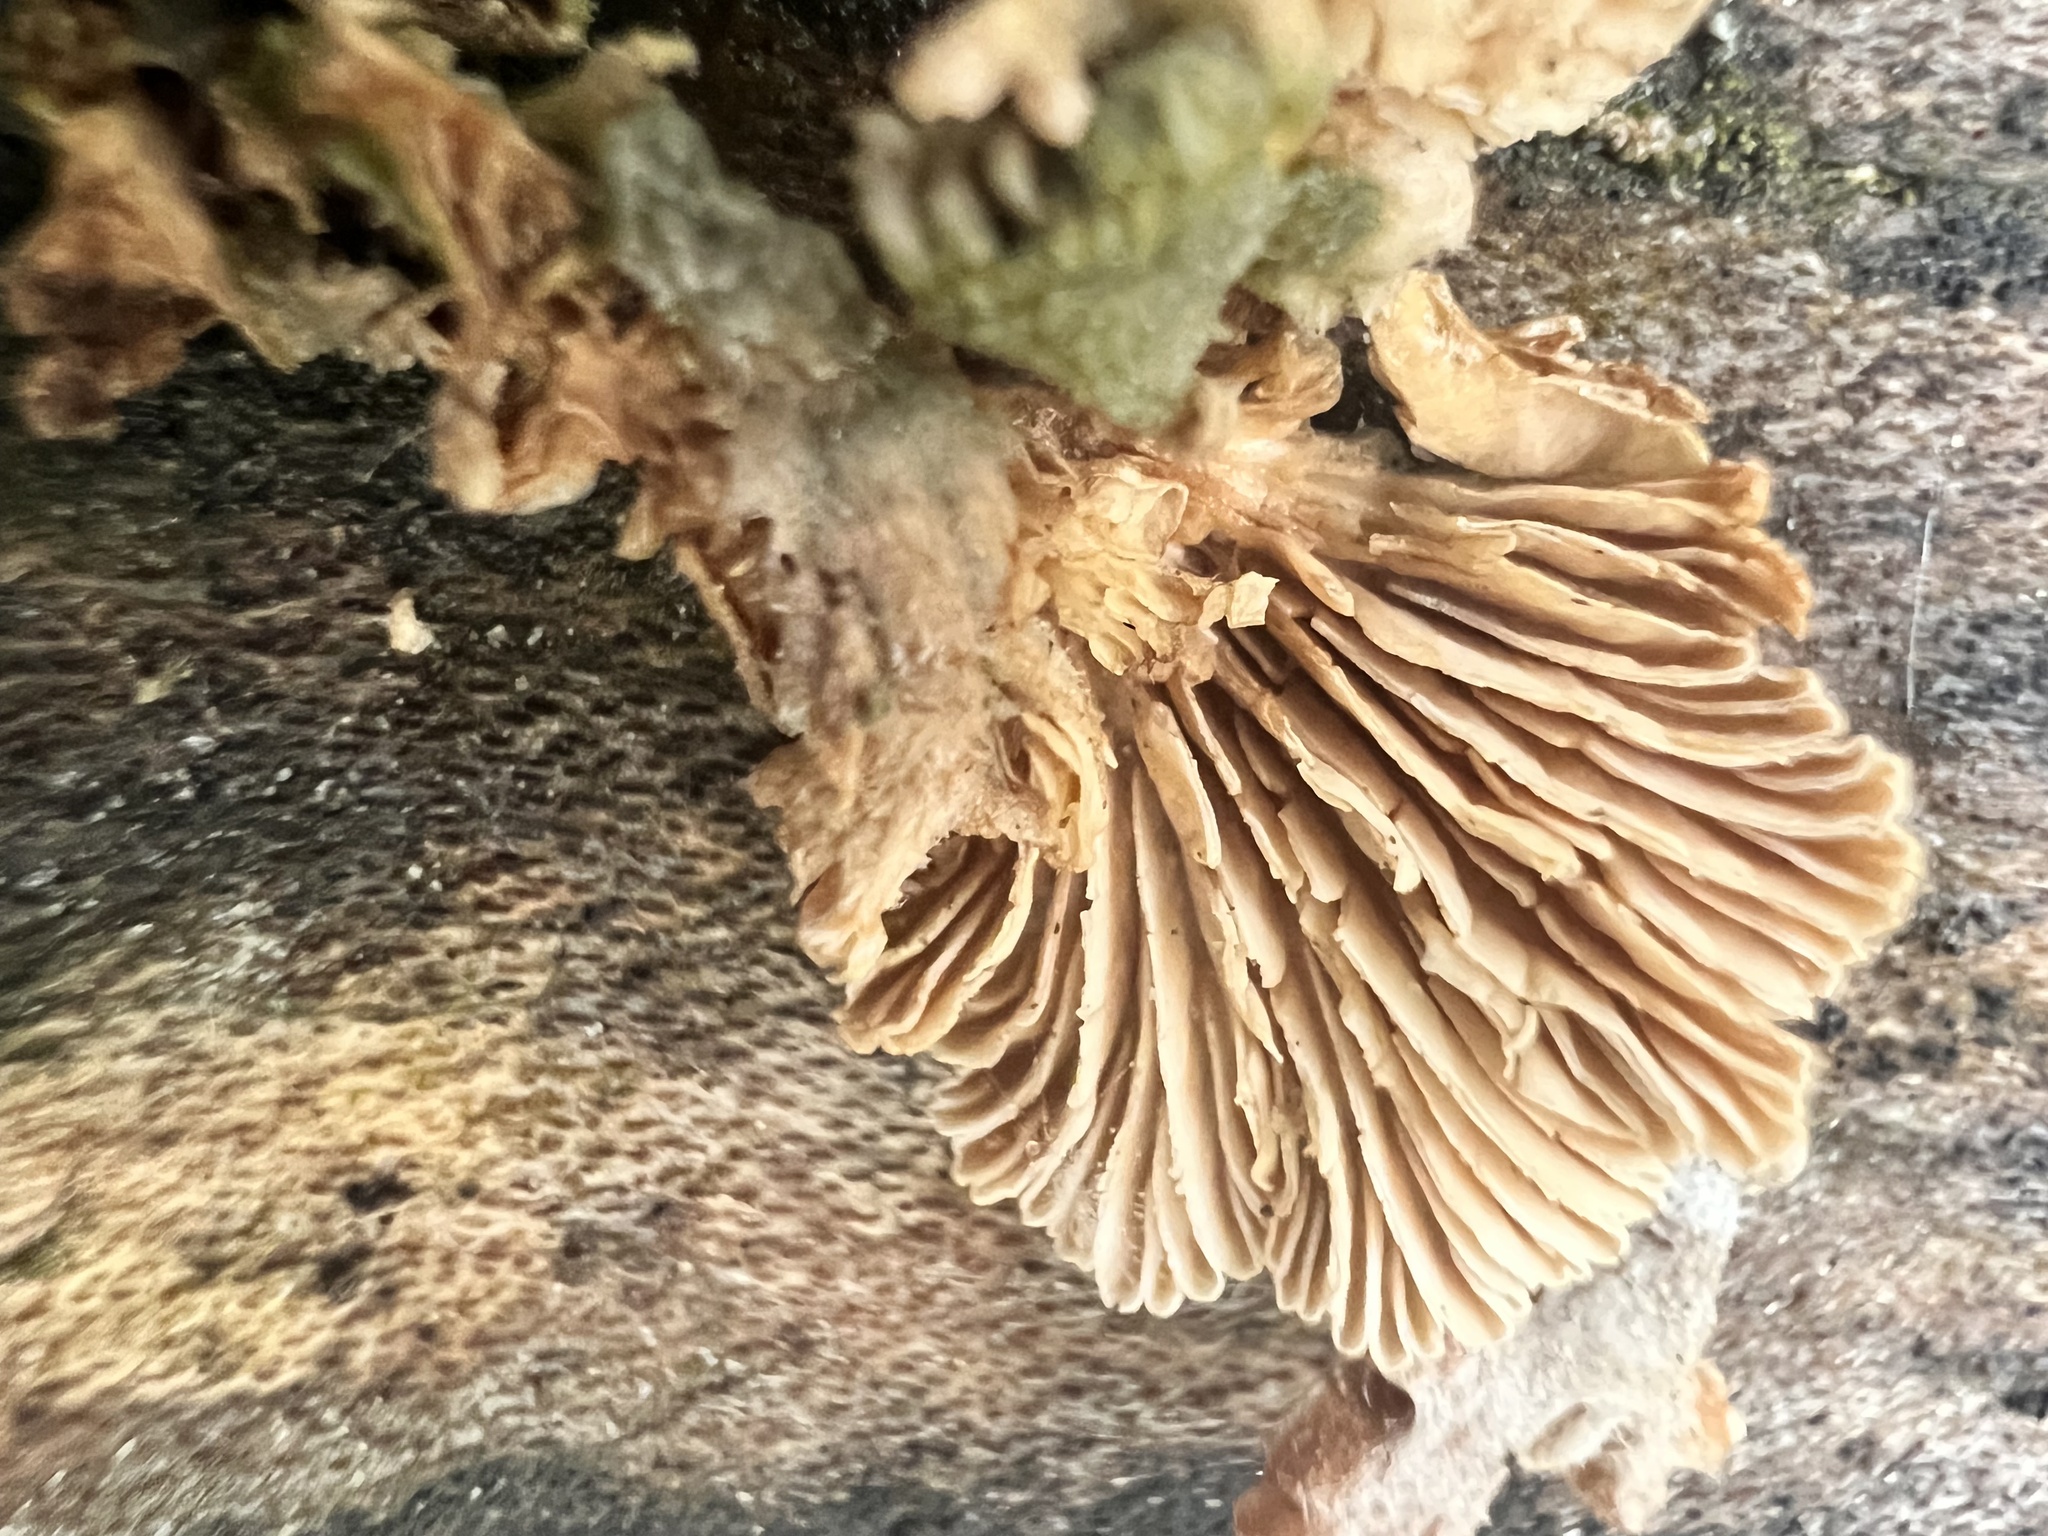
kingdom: Fungi
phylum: Basidiomycota
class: Agaricomycetes
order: Agaricales
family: Schizophyllaceae
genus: Schizophyllum
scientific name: Schizophyllum commune
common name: Common porecrust
